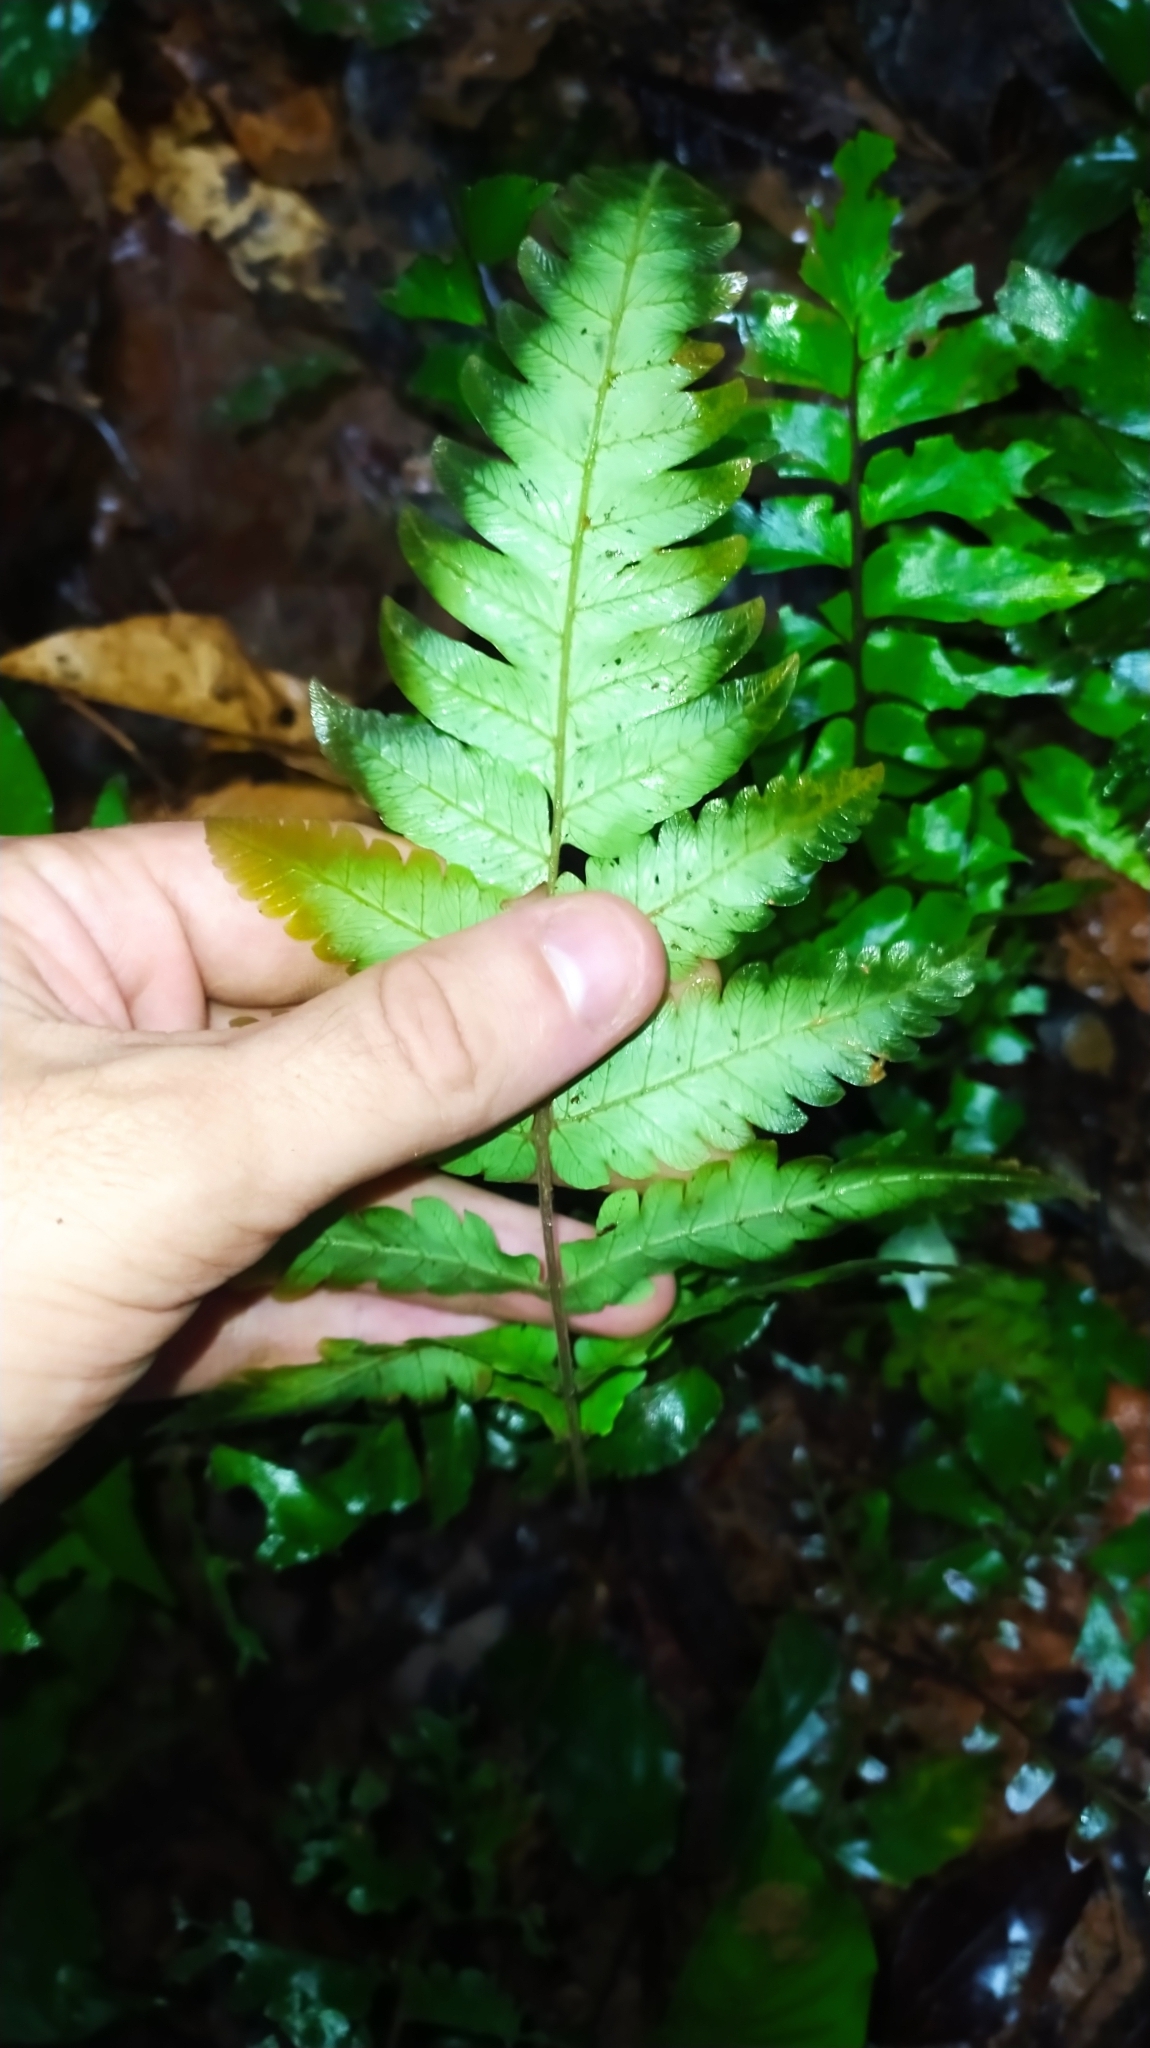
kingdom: Plantae
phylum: Tracheophyta
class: Polypodiopsida
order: Polypodiales
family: Thelypteridaceae
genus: Goniopteris
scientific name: Goniopteris abrupta
